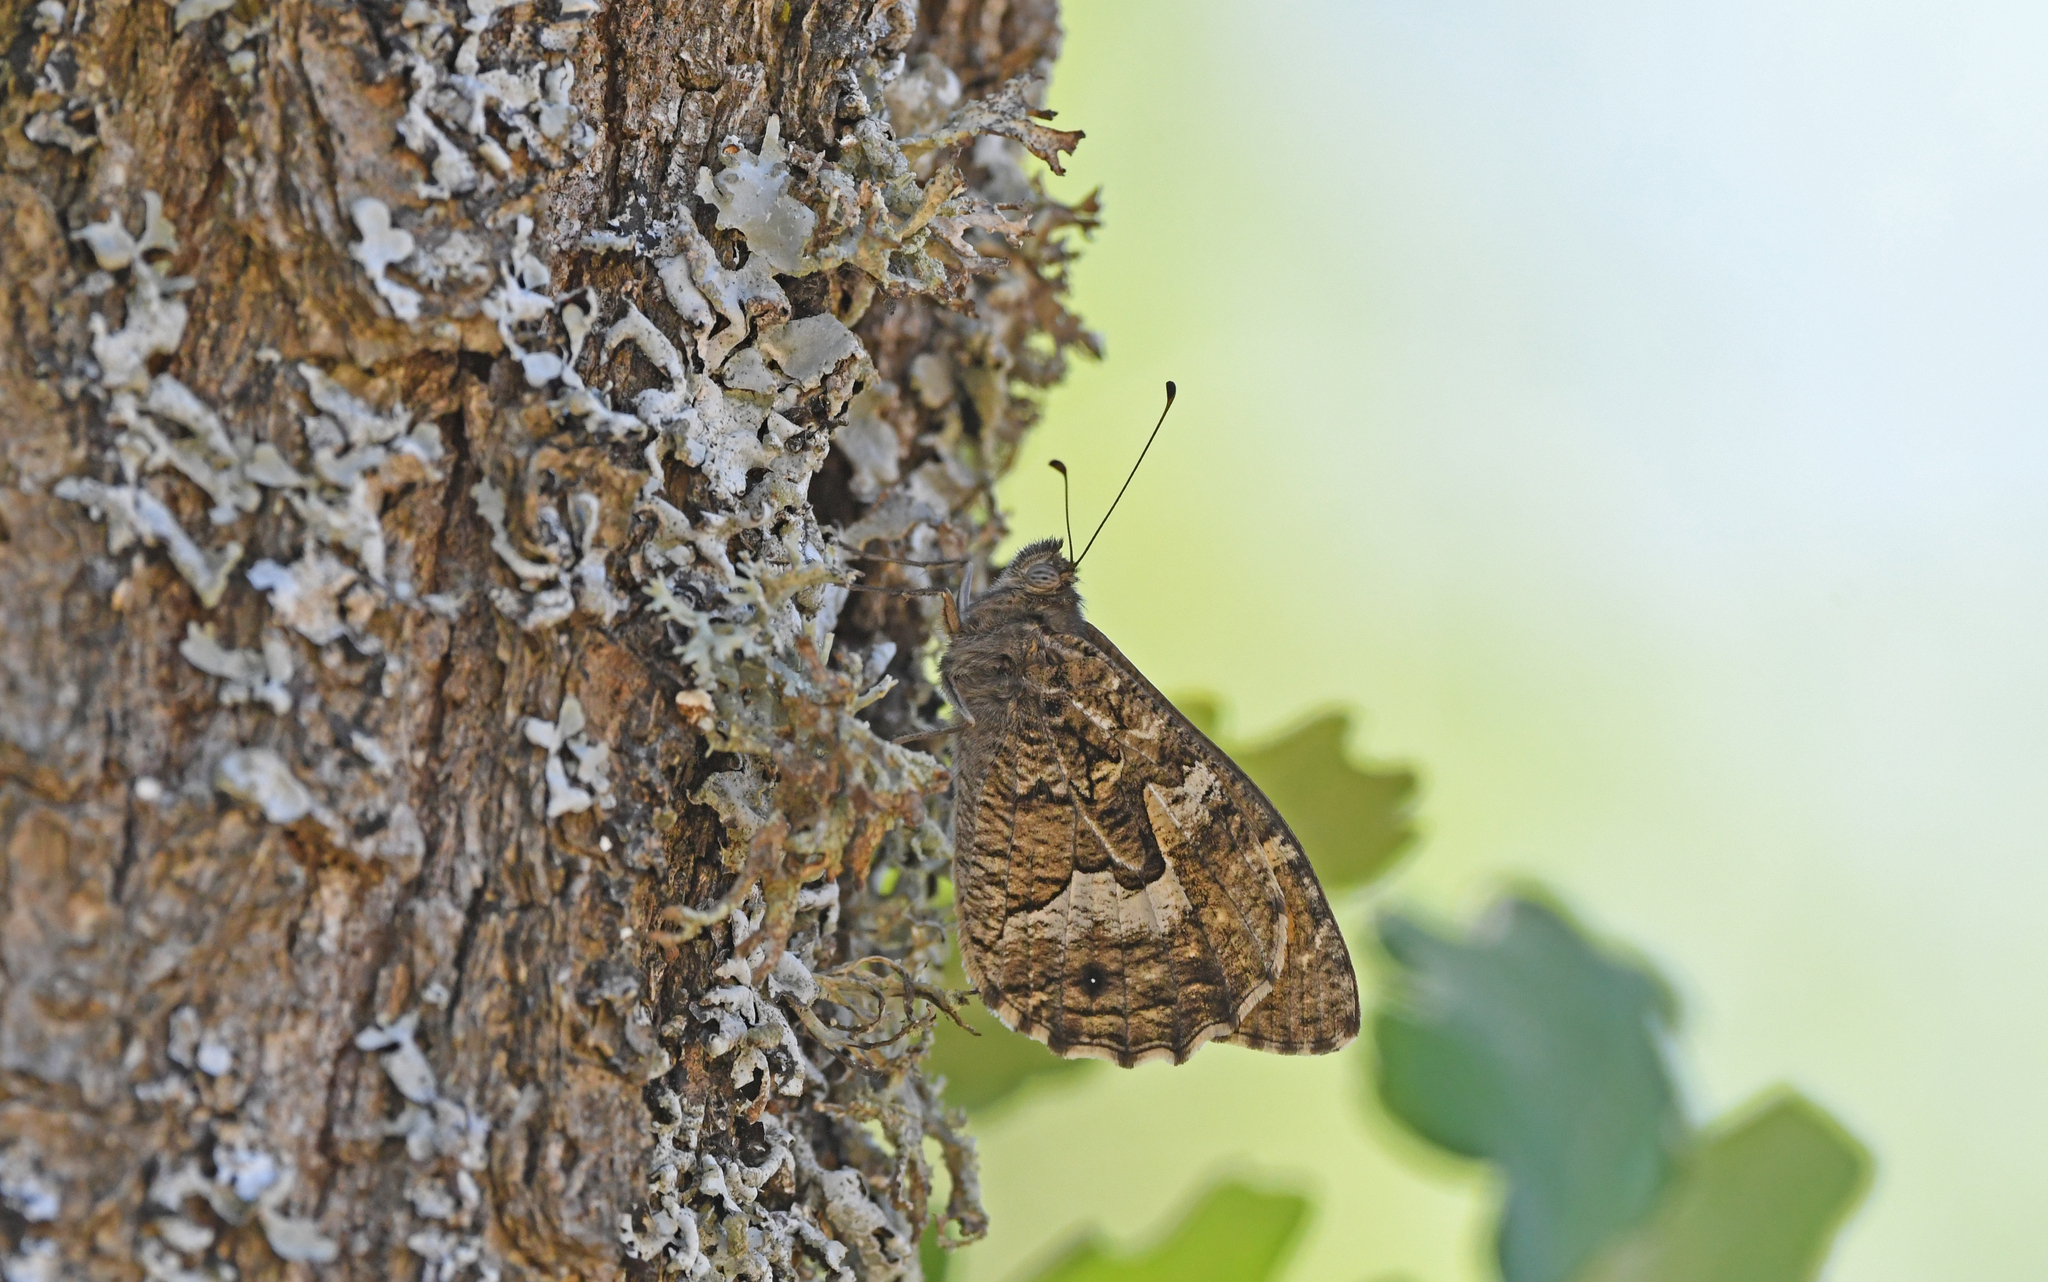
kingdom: Animalia
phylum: Arthropoda
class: Insecta
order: Lepidoptera
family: Nymphalidae
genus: Hipparchia
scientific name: Hipparchia semele
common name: Grayling
